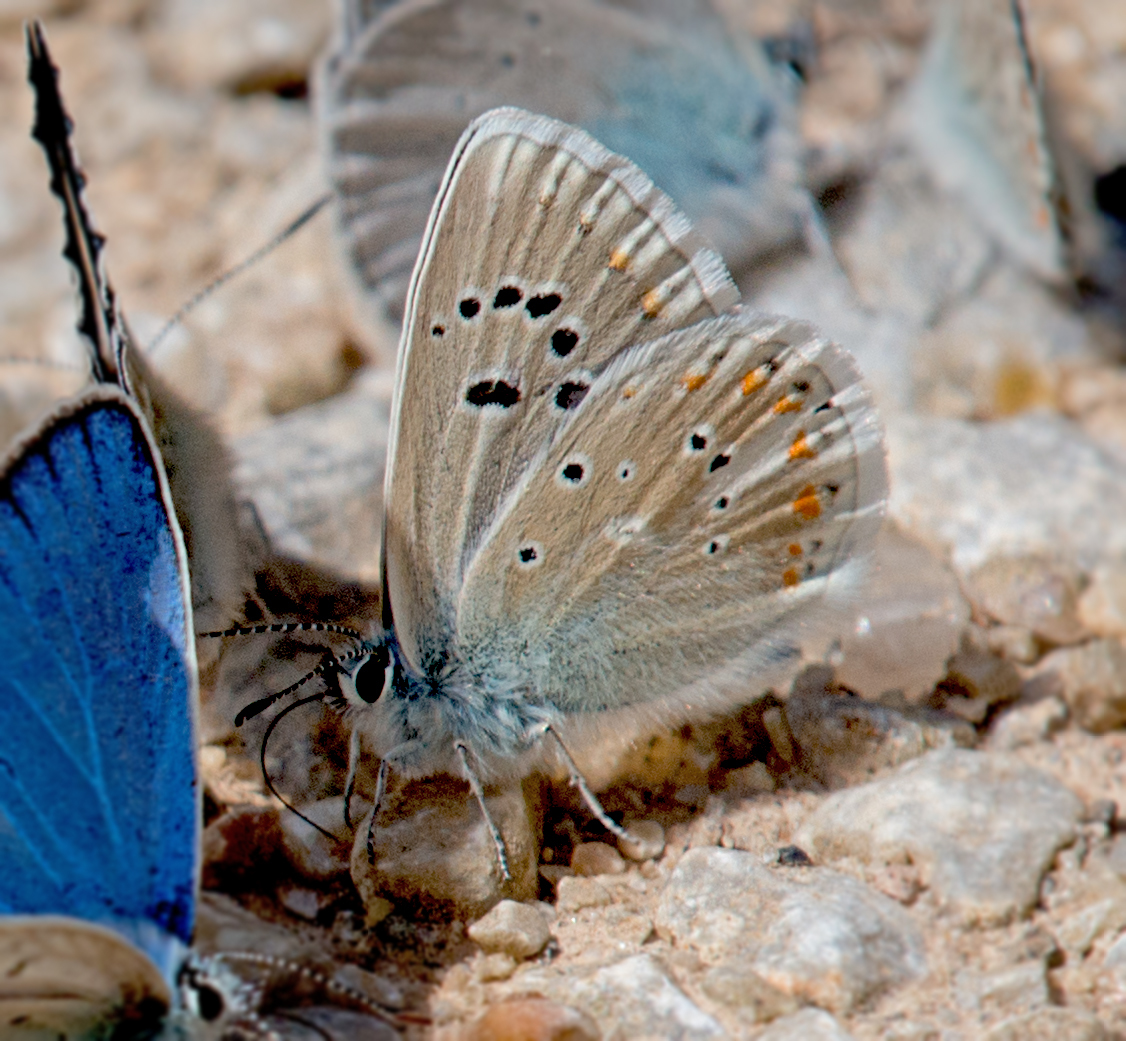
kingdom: Animalia
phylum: Arthropoda
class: Insecta
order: Lepidoptera
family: Lycaenidae
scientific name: Lycaenidae
